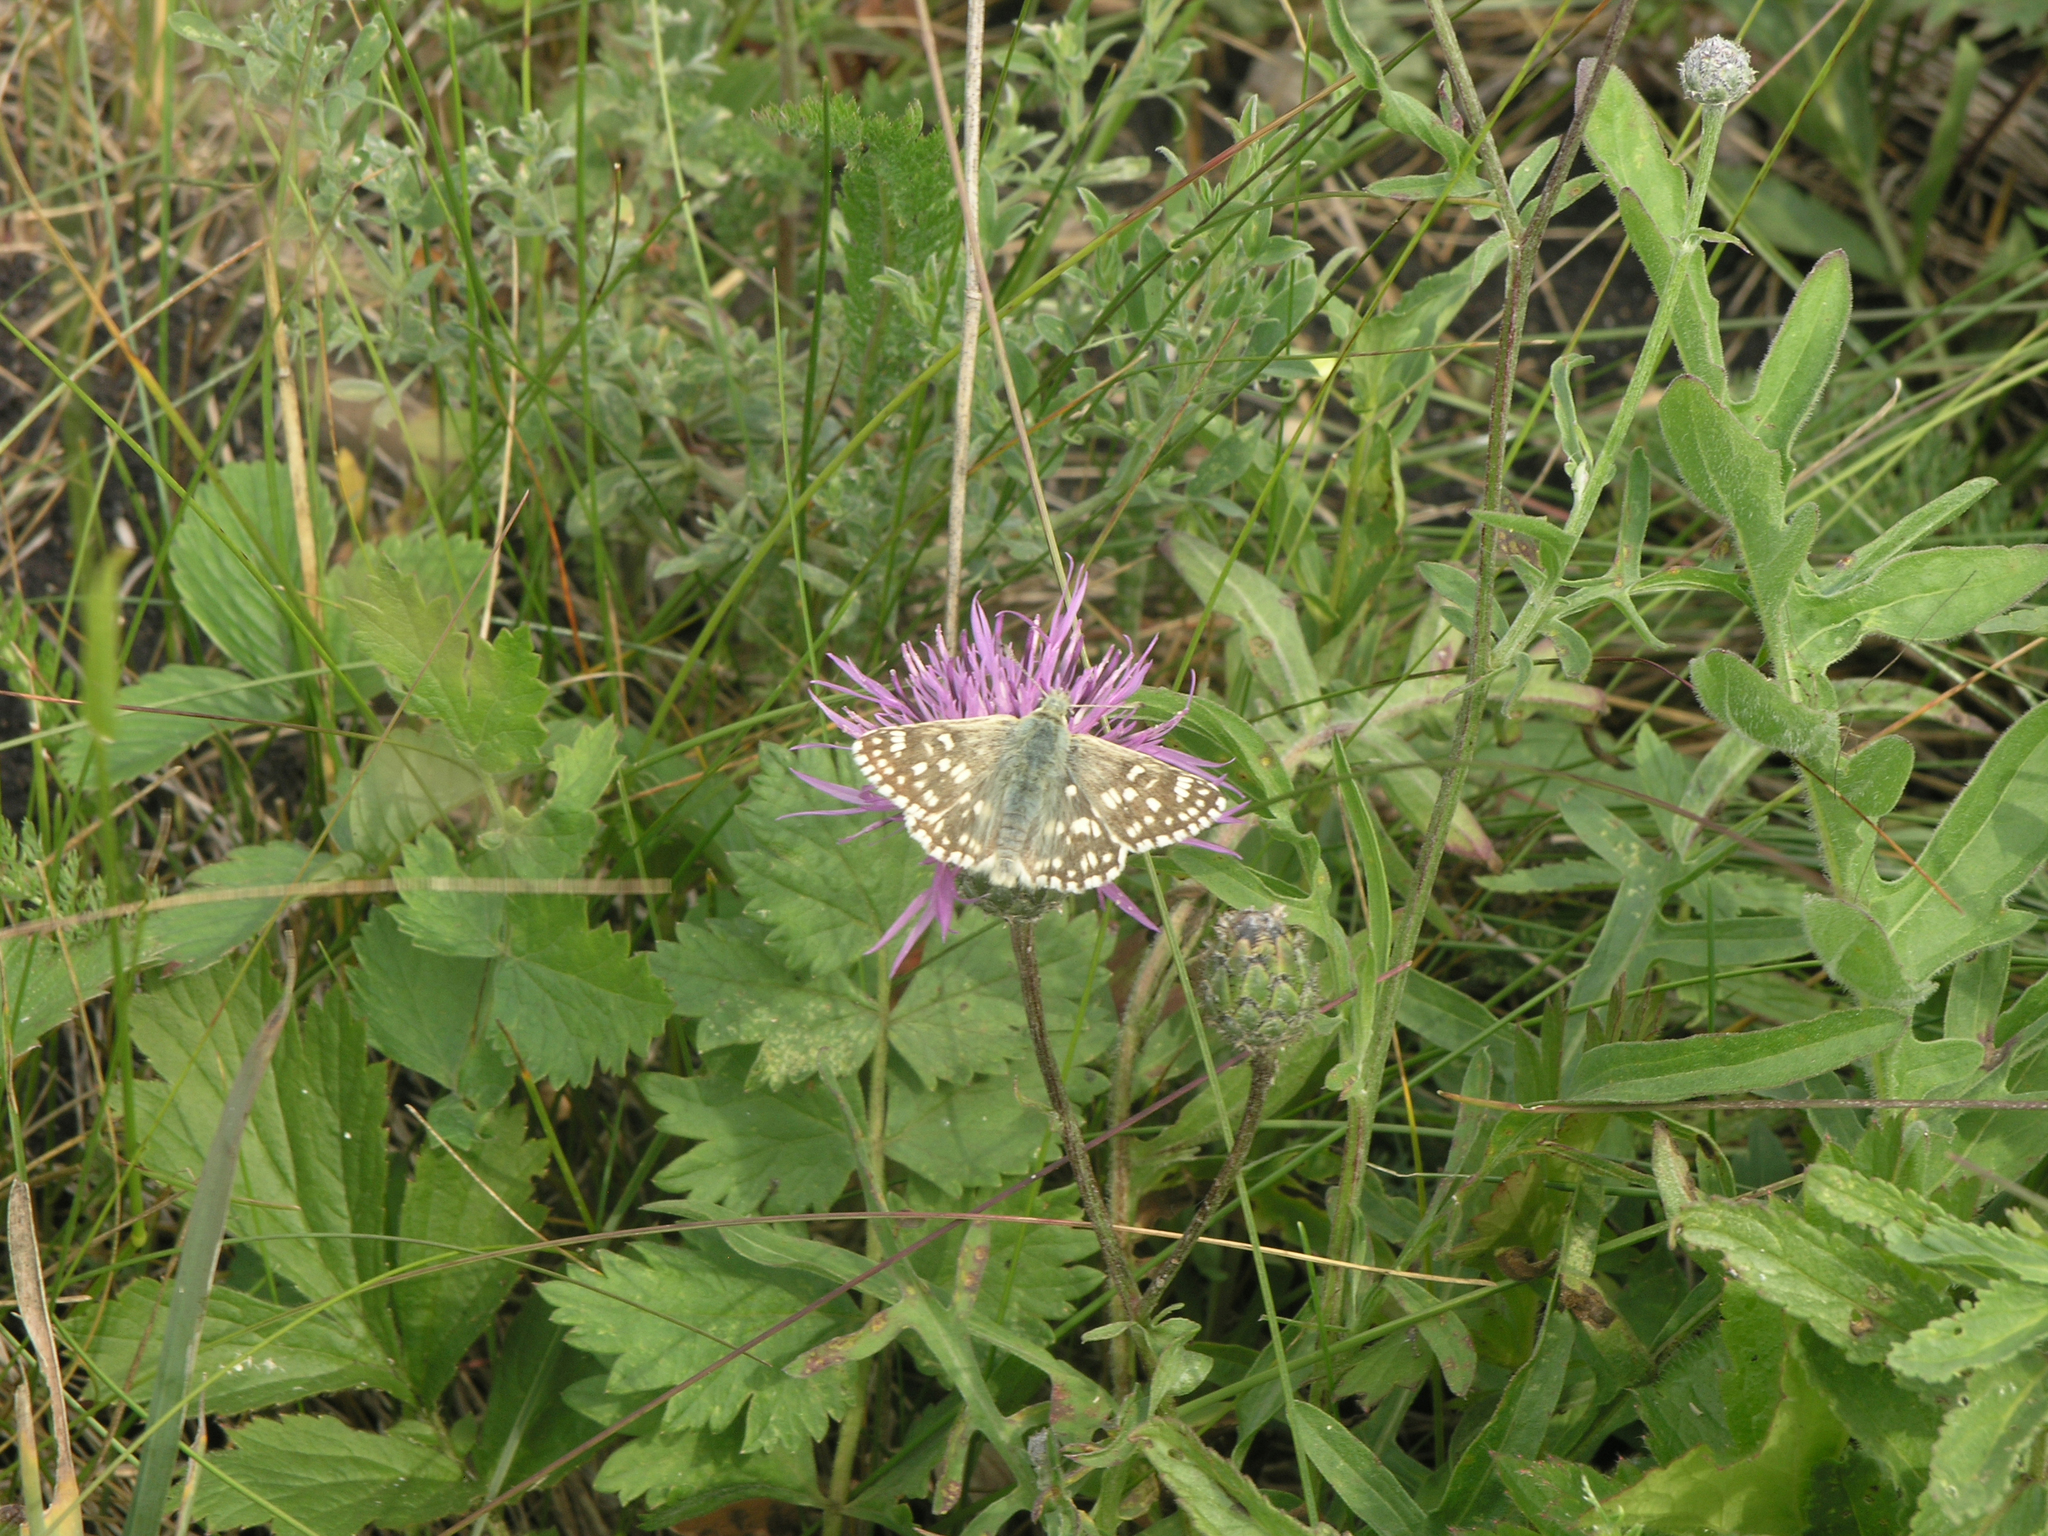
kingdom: Animalia
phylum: Arthropoda
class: Insecta
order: Lepidoptera
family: Hesperiidae
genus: Syrichtus
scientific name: Syrichtus tessellum
